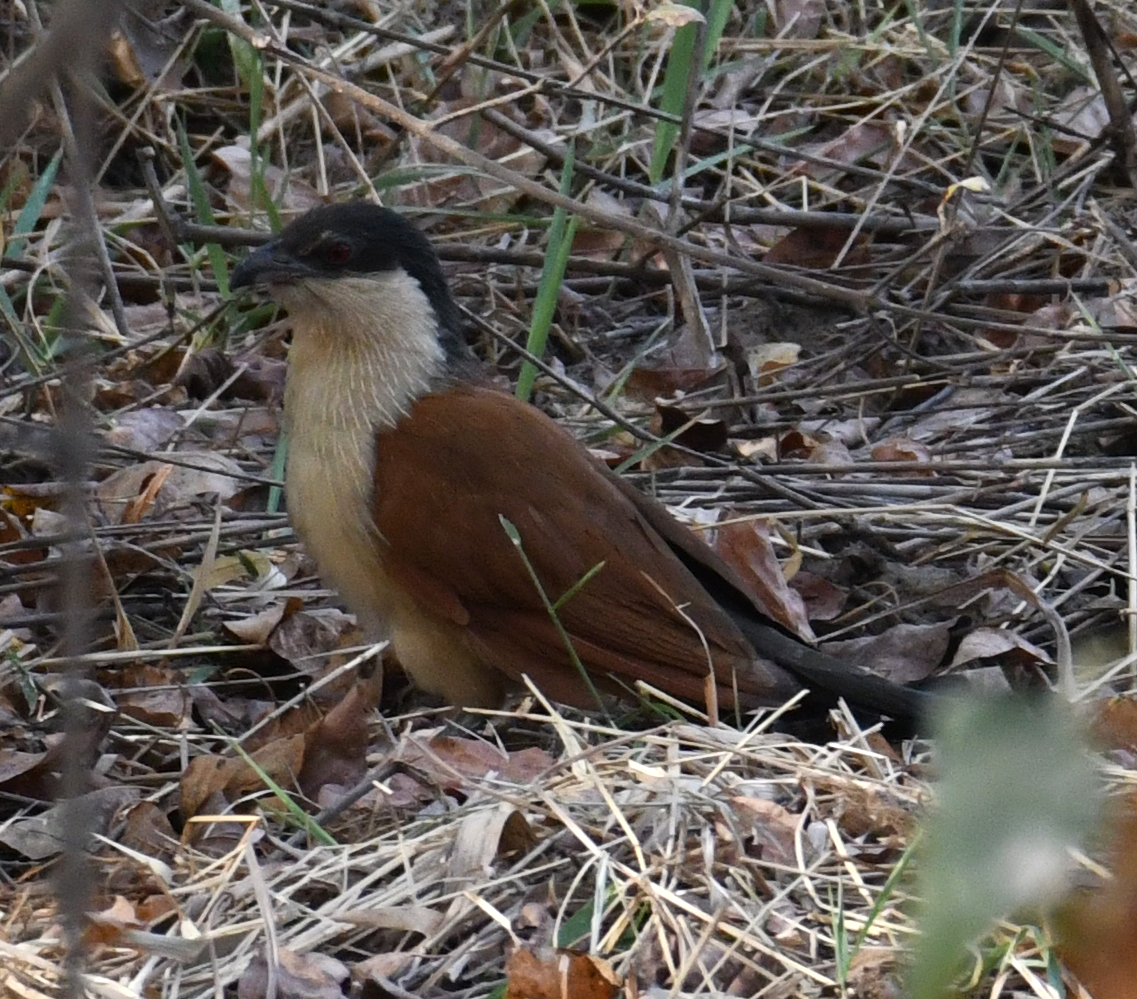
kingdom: Animalia
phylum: Chordata
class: Aves
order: Cuculiformes
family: Cuculidae
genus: Centropus
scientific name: Centropus senegalensis
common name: Senegal coucal
